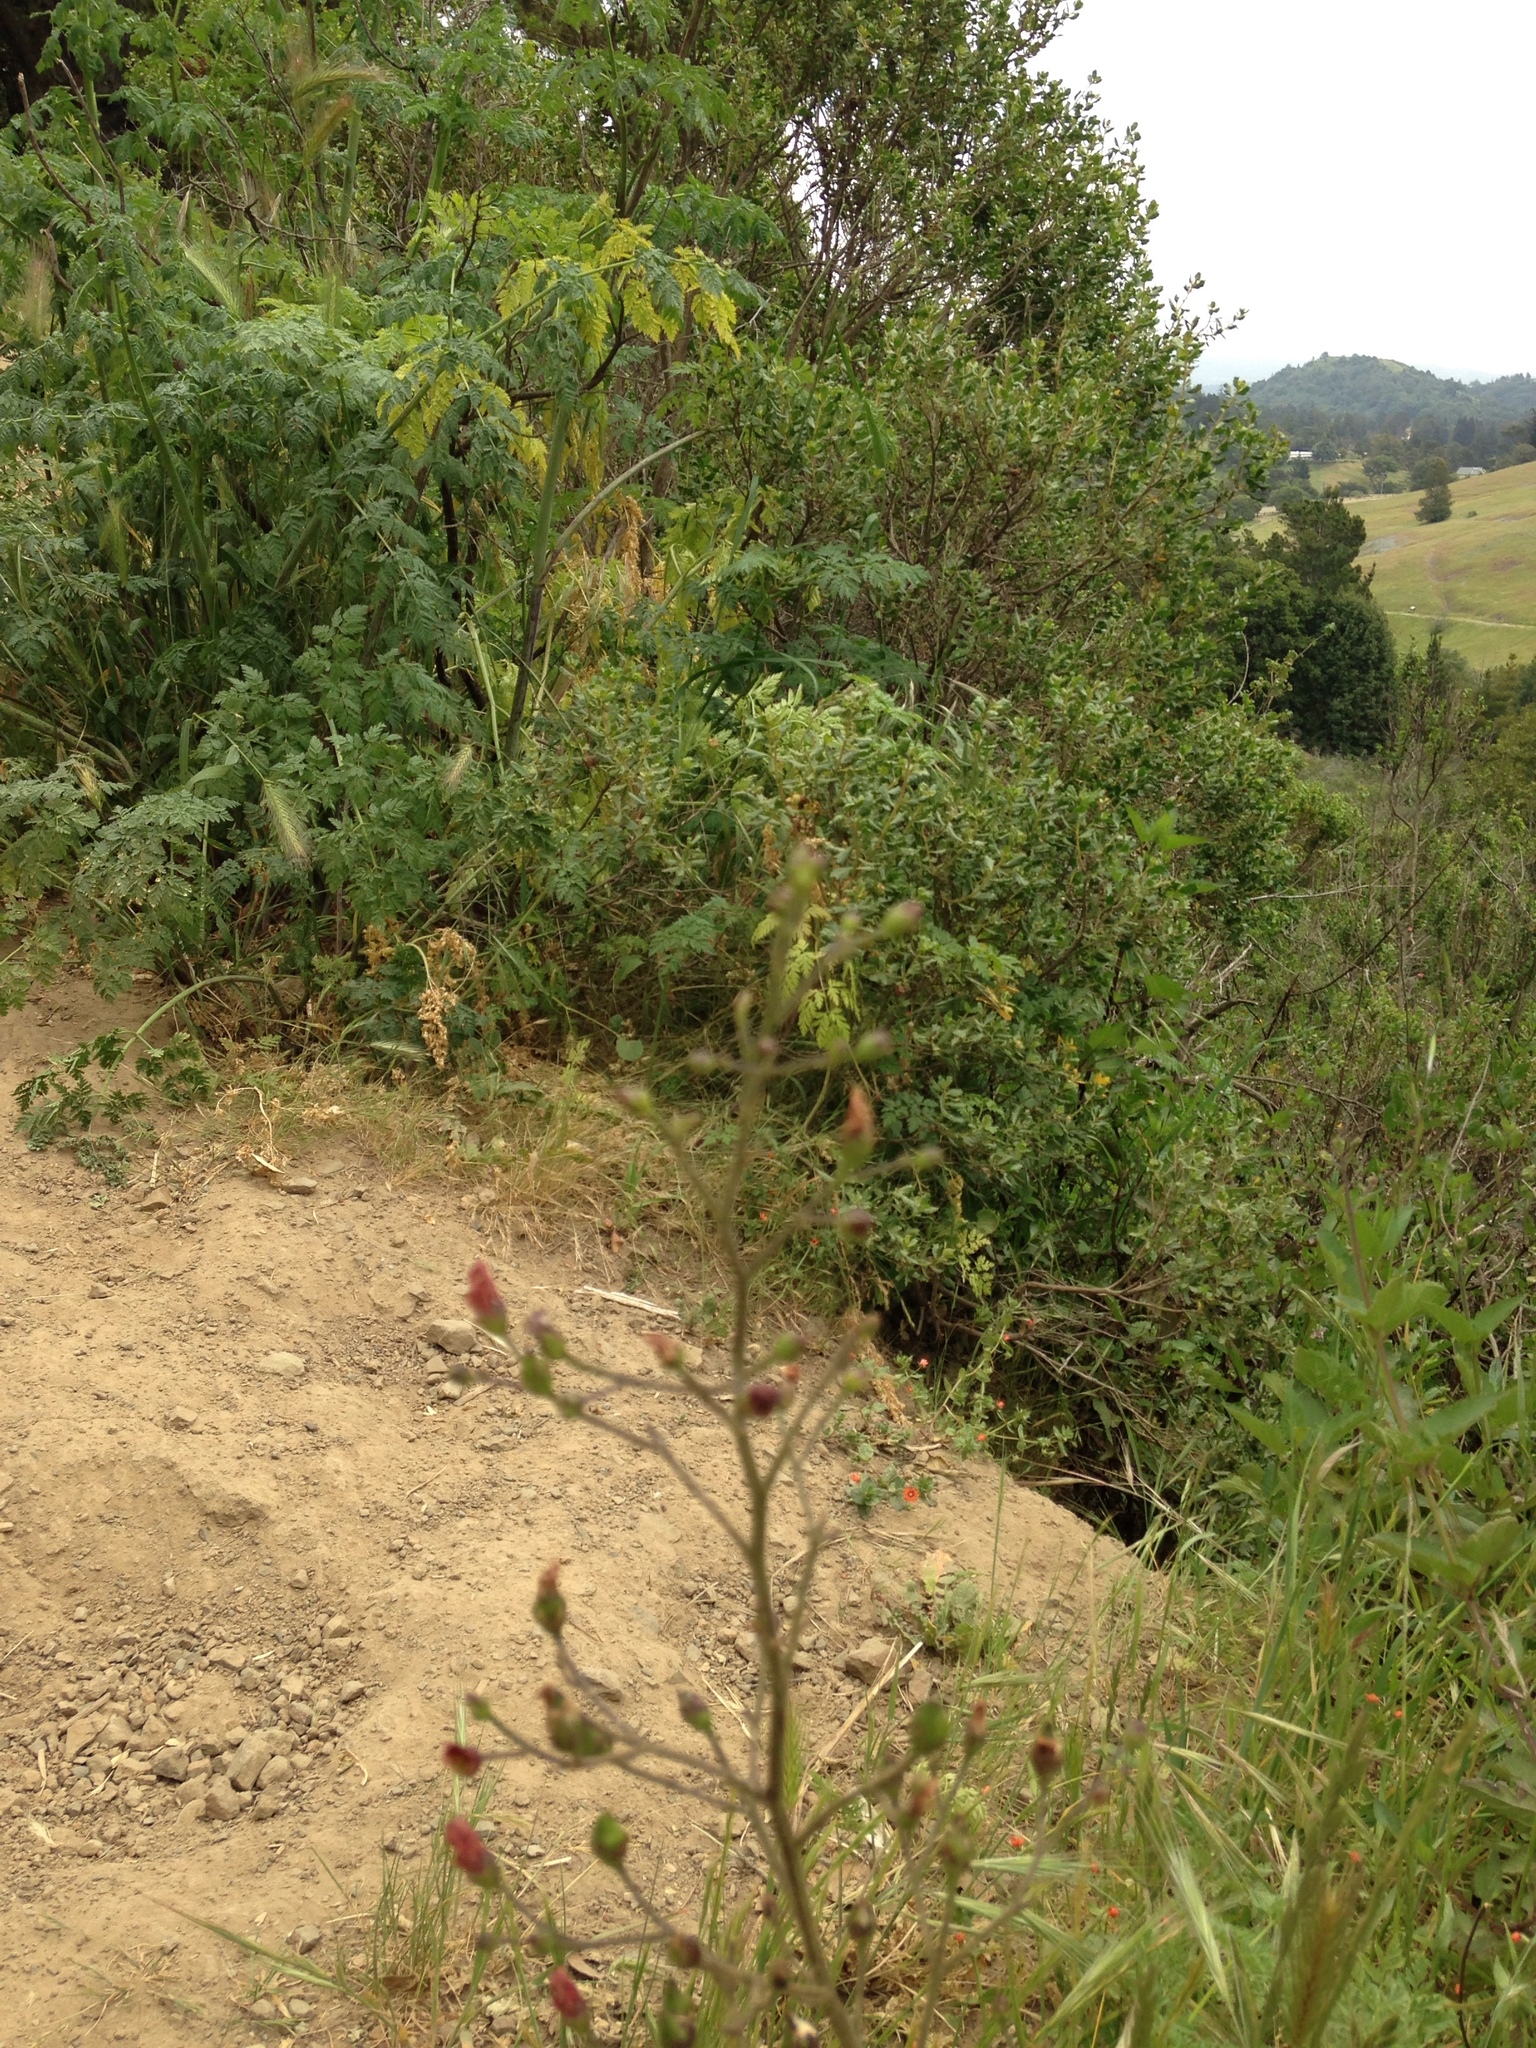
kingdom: Plantae
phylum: Tracheophyta
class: Magnoliopsida
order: Lamiales
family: Scrophulariaceae
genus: Scrophularia
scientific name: Scrophularia californica
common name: California figwort
